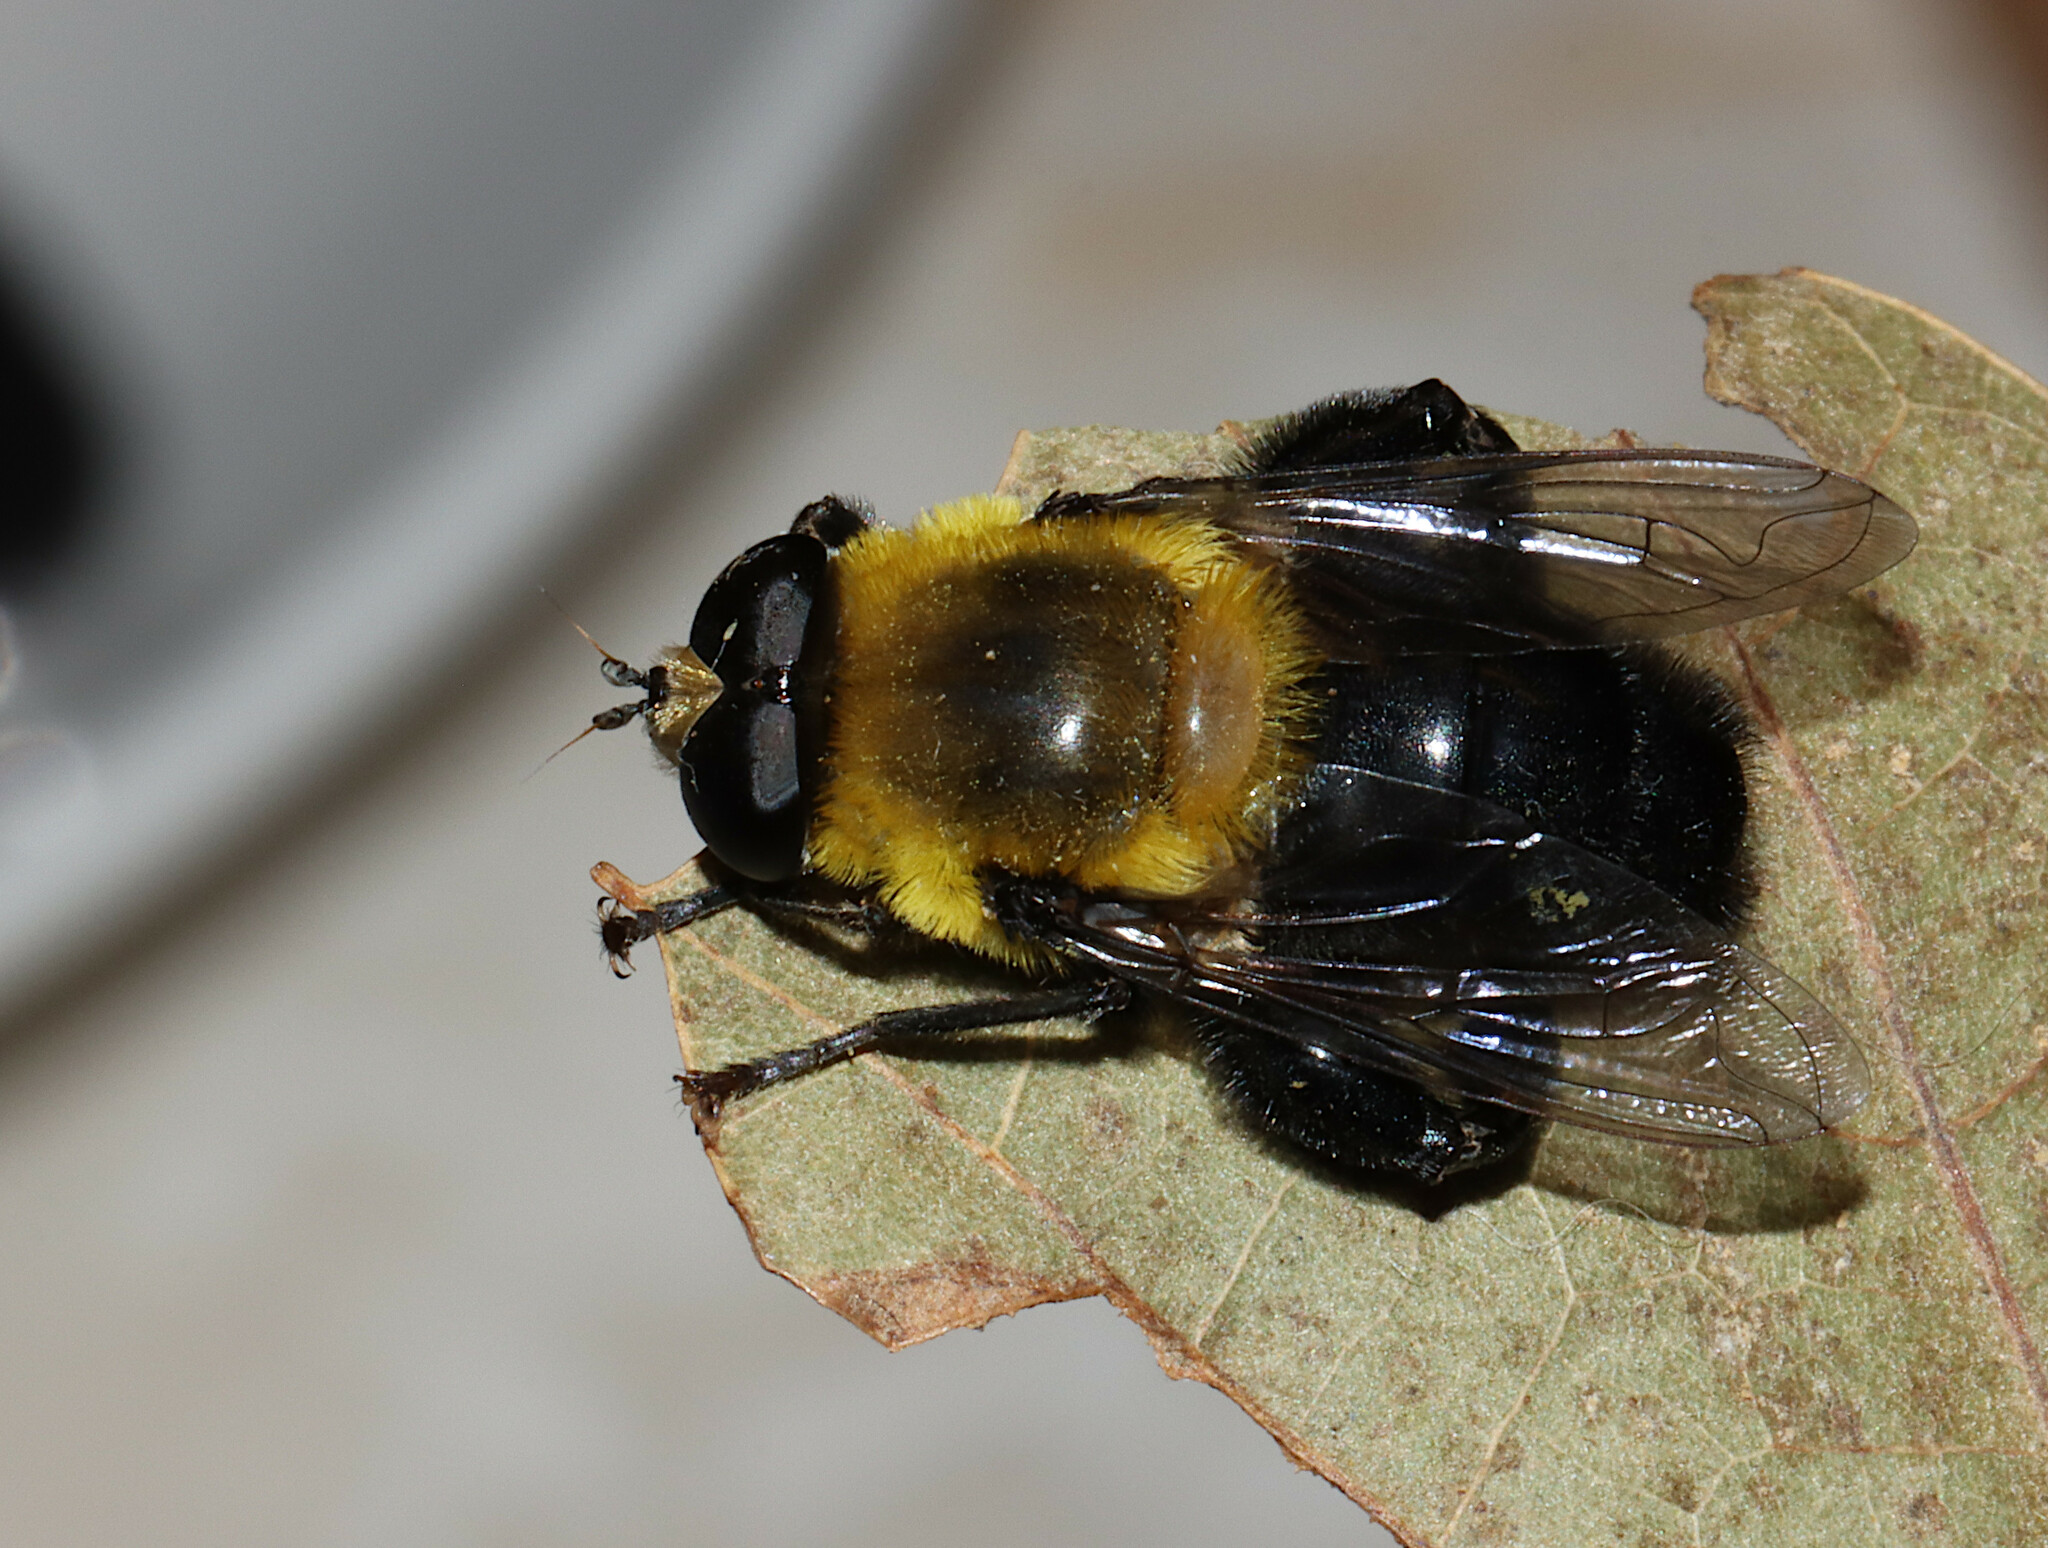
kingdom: Animalia
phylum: Arthropoda
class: Insecta
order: Diptera
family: Syrphidae
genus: Imatisma
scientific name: Imatisma bautias
